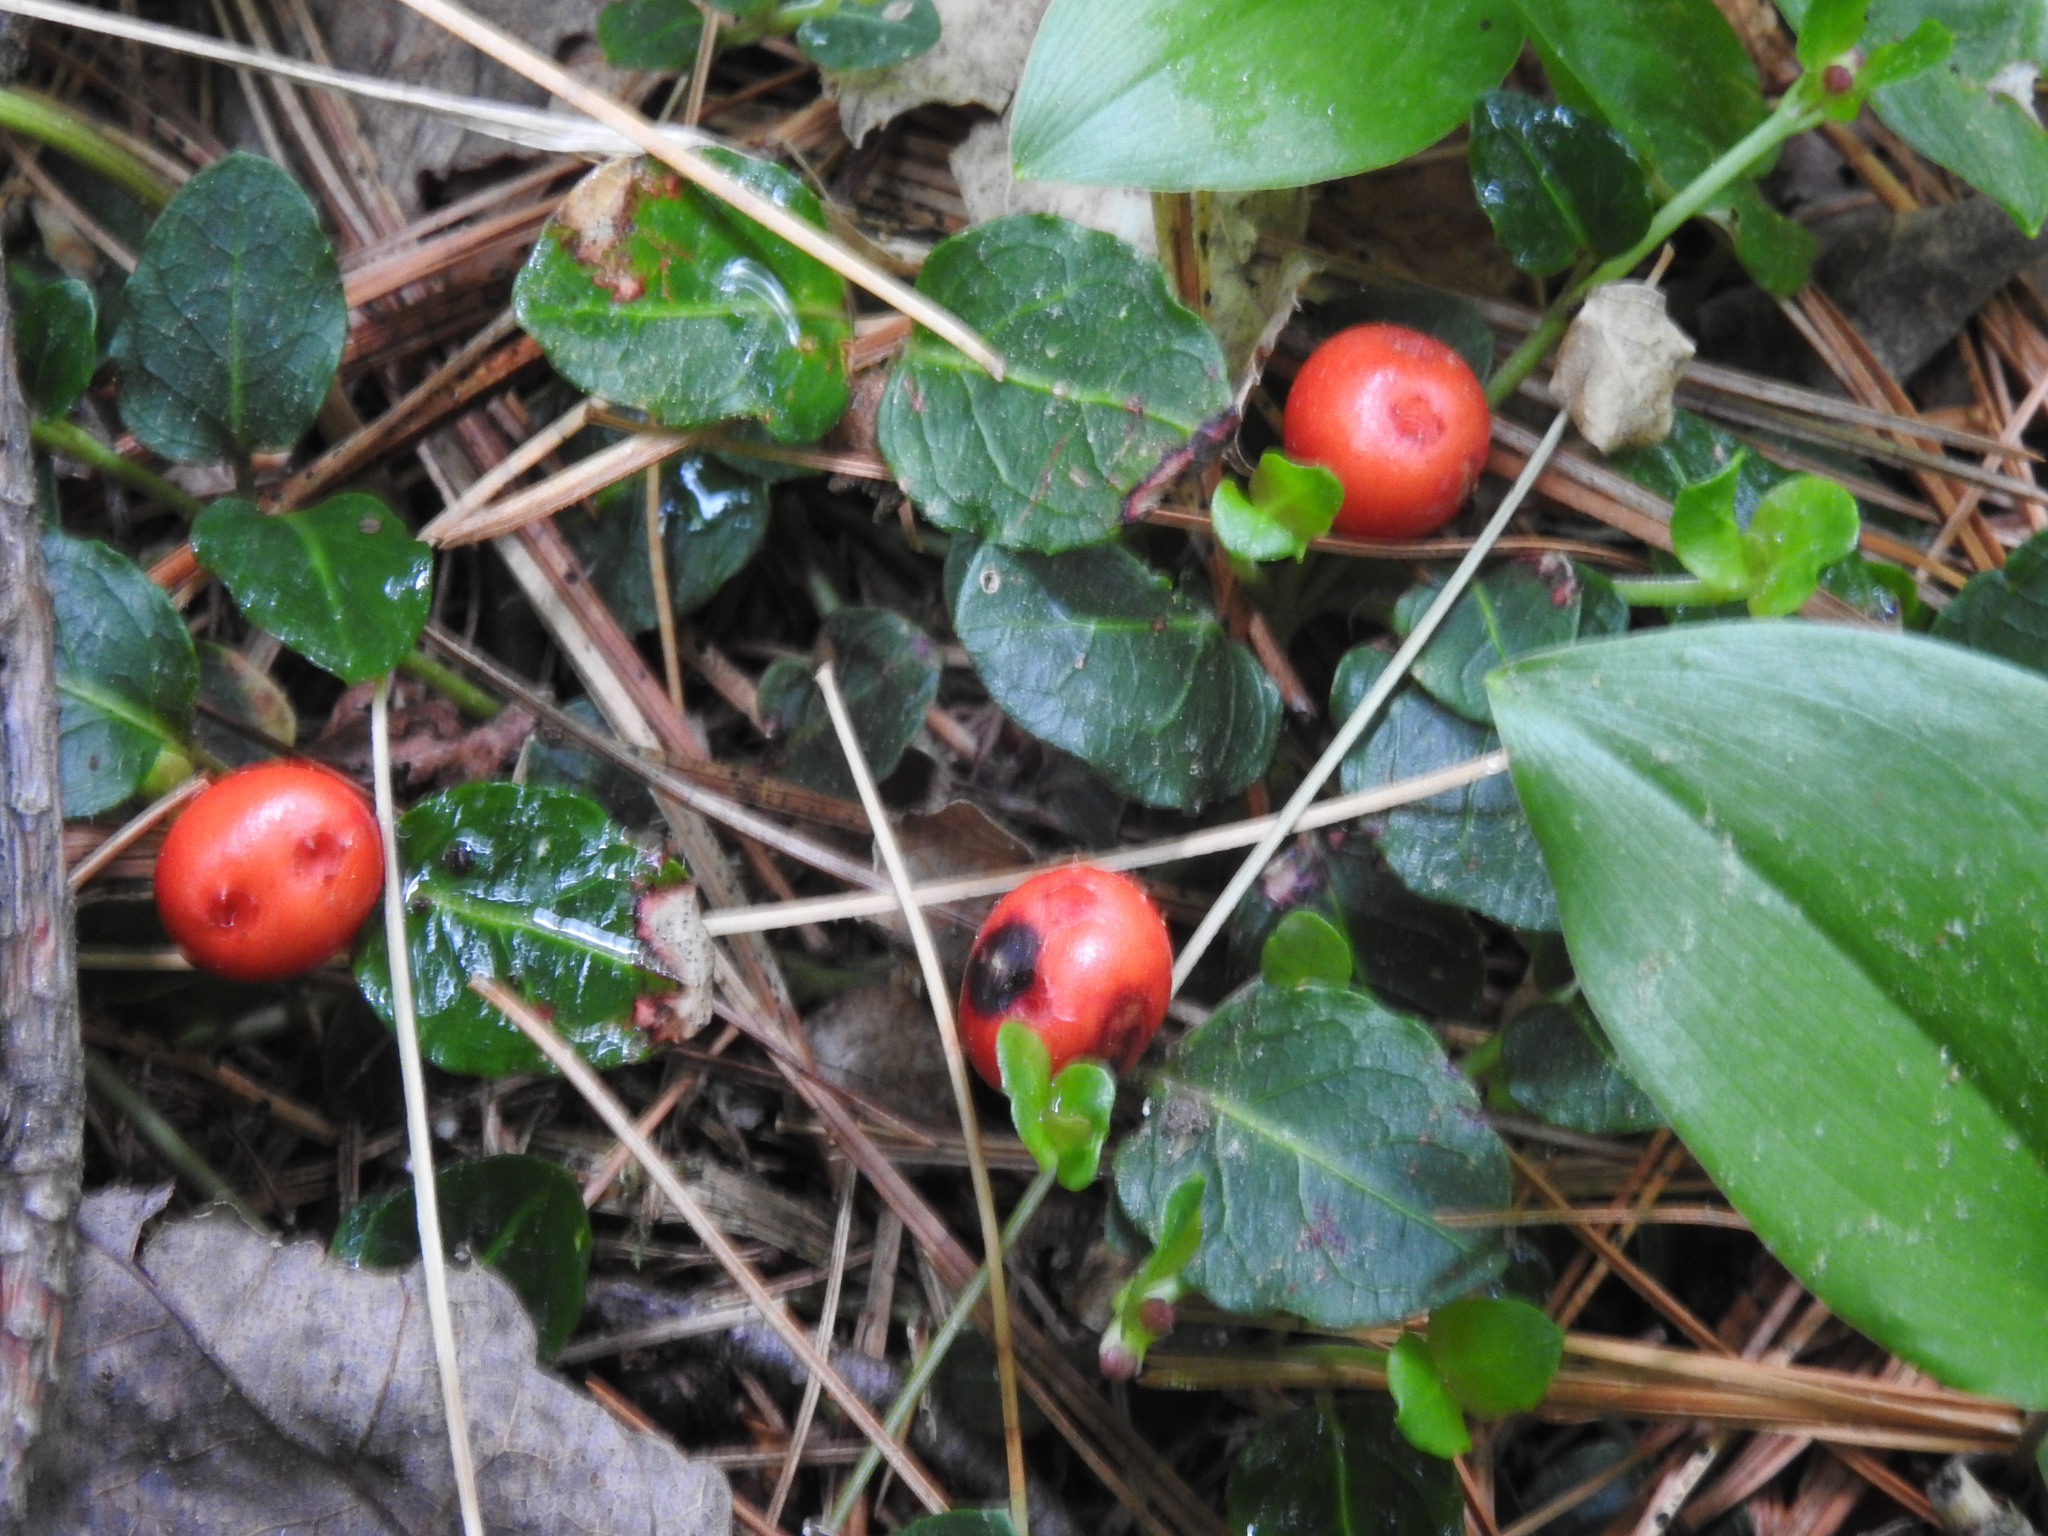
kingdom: Plantae
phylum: Tracheophyta
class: Magnoliopsida
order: Gentianales
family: Rubiaceae
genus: Mitchella
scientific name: Mitchella repens
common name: Partridge-berry
